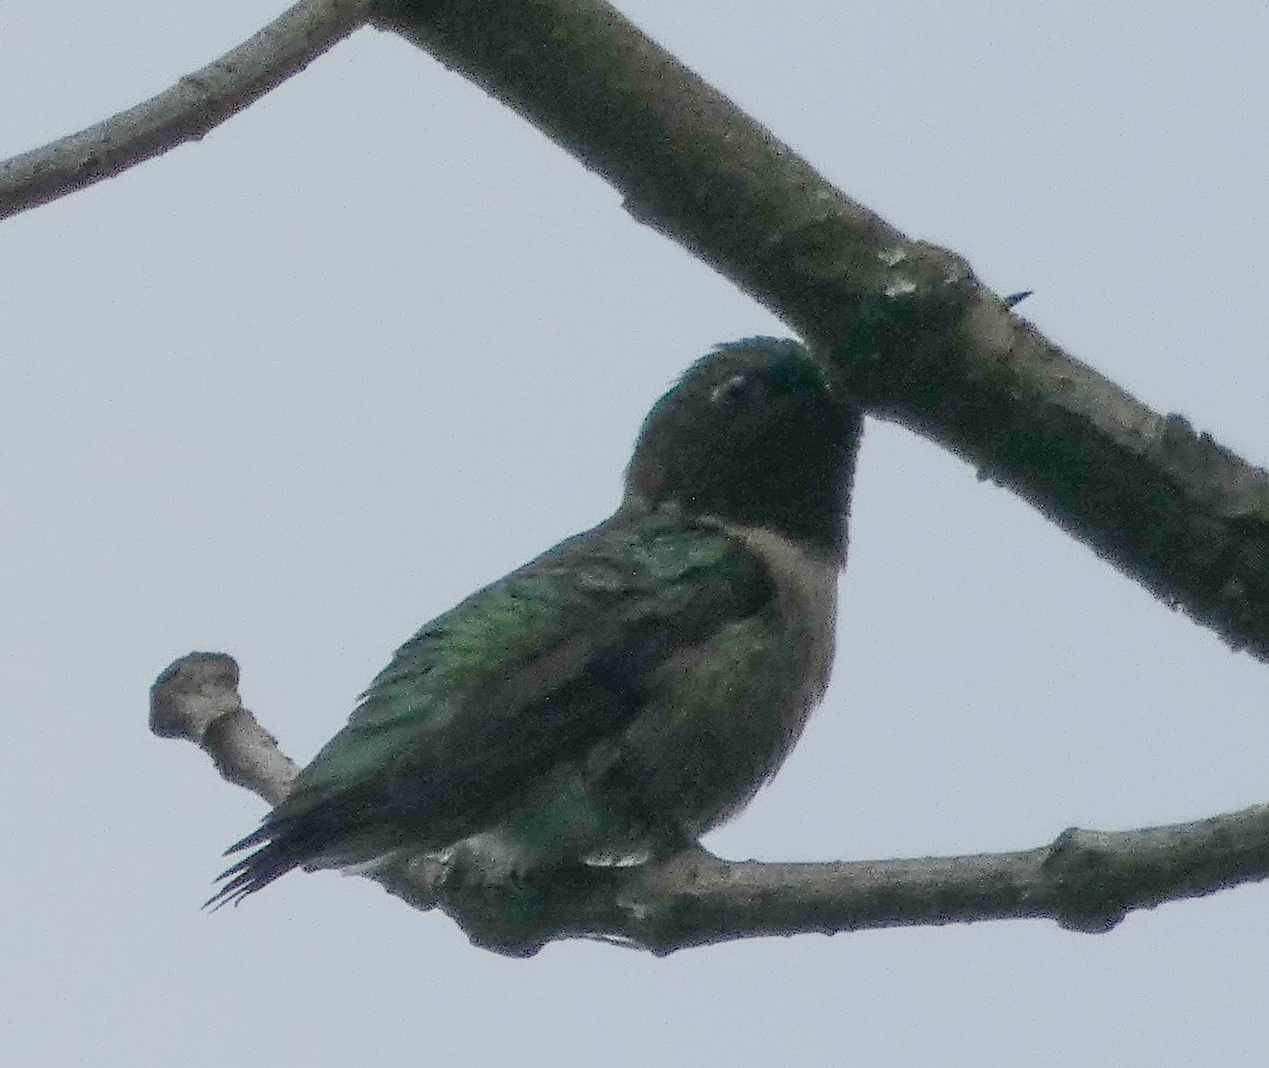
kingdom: Animalia
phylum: Chordata
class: Aves
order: Apodiformes
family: Trochilidae
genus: Archilochus
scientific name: Archilochus colubris
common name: Ruby-throated hummingbird
